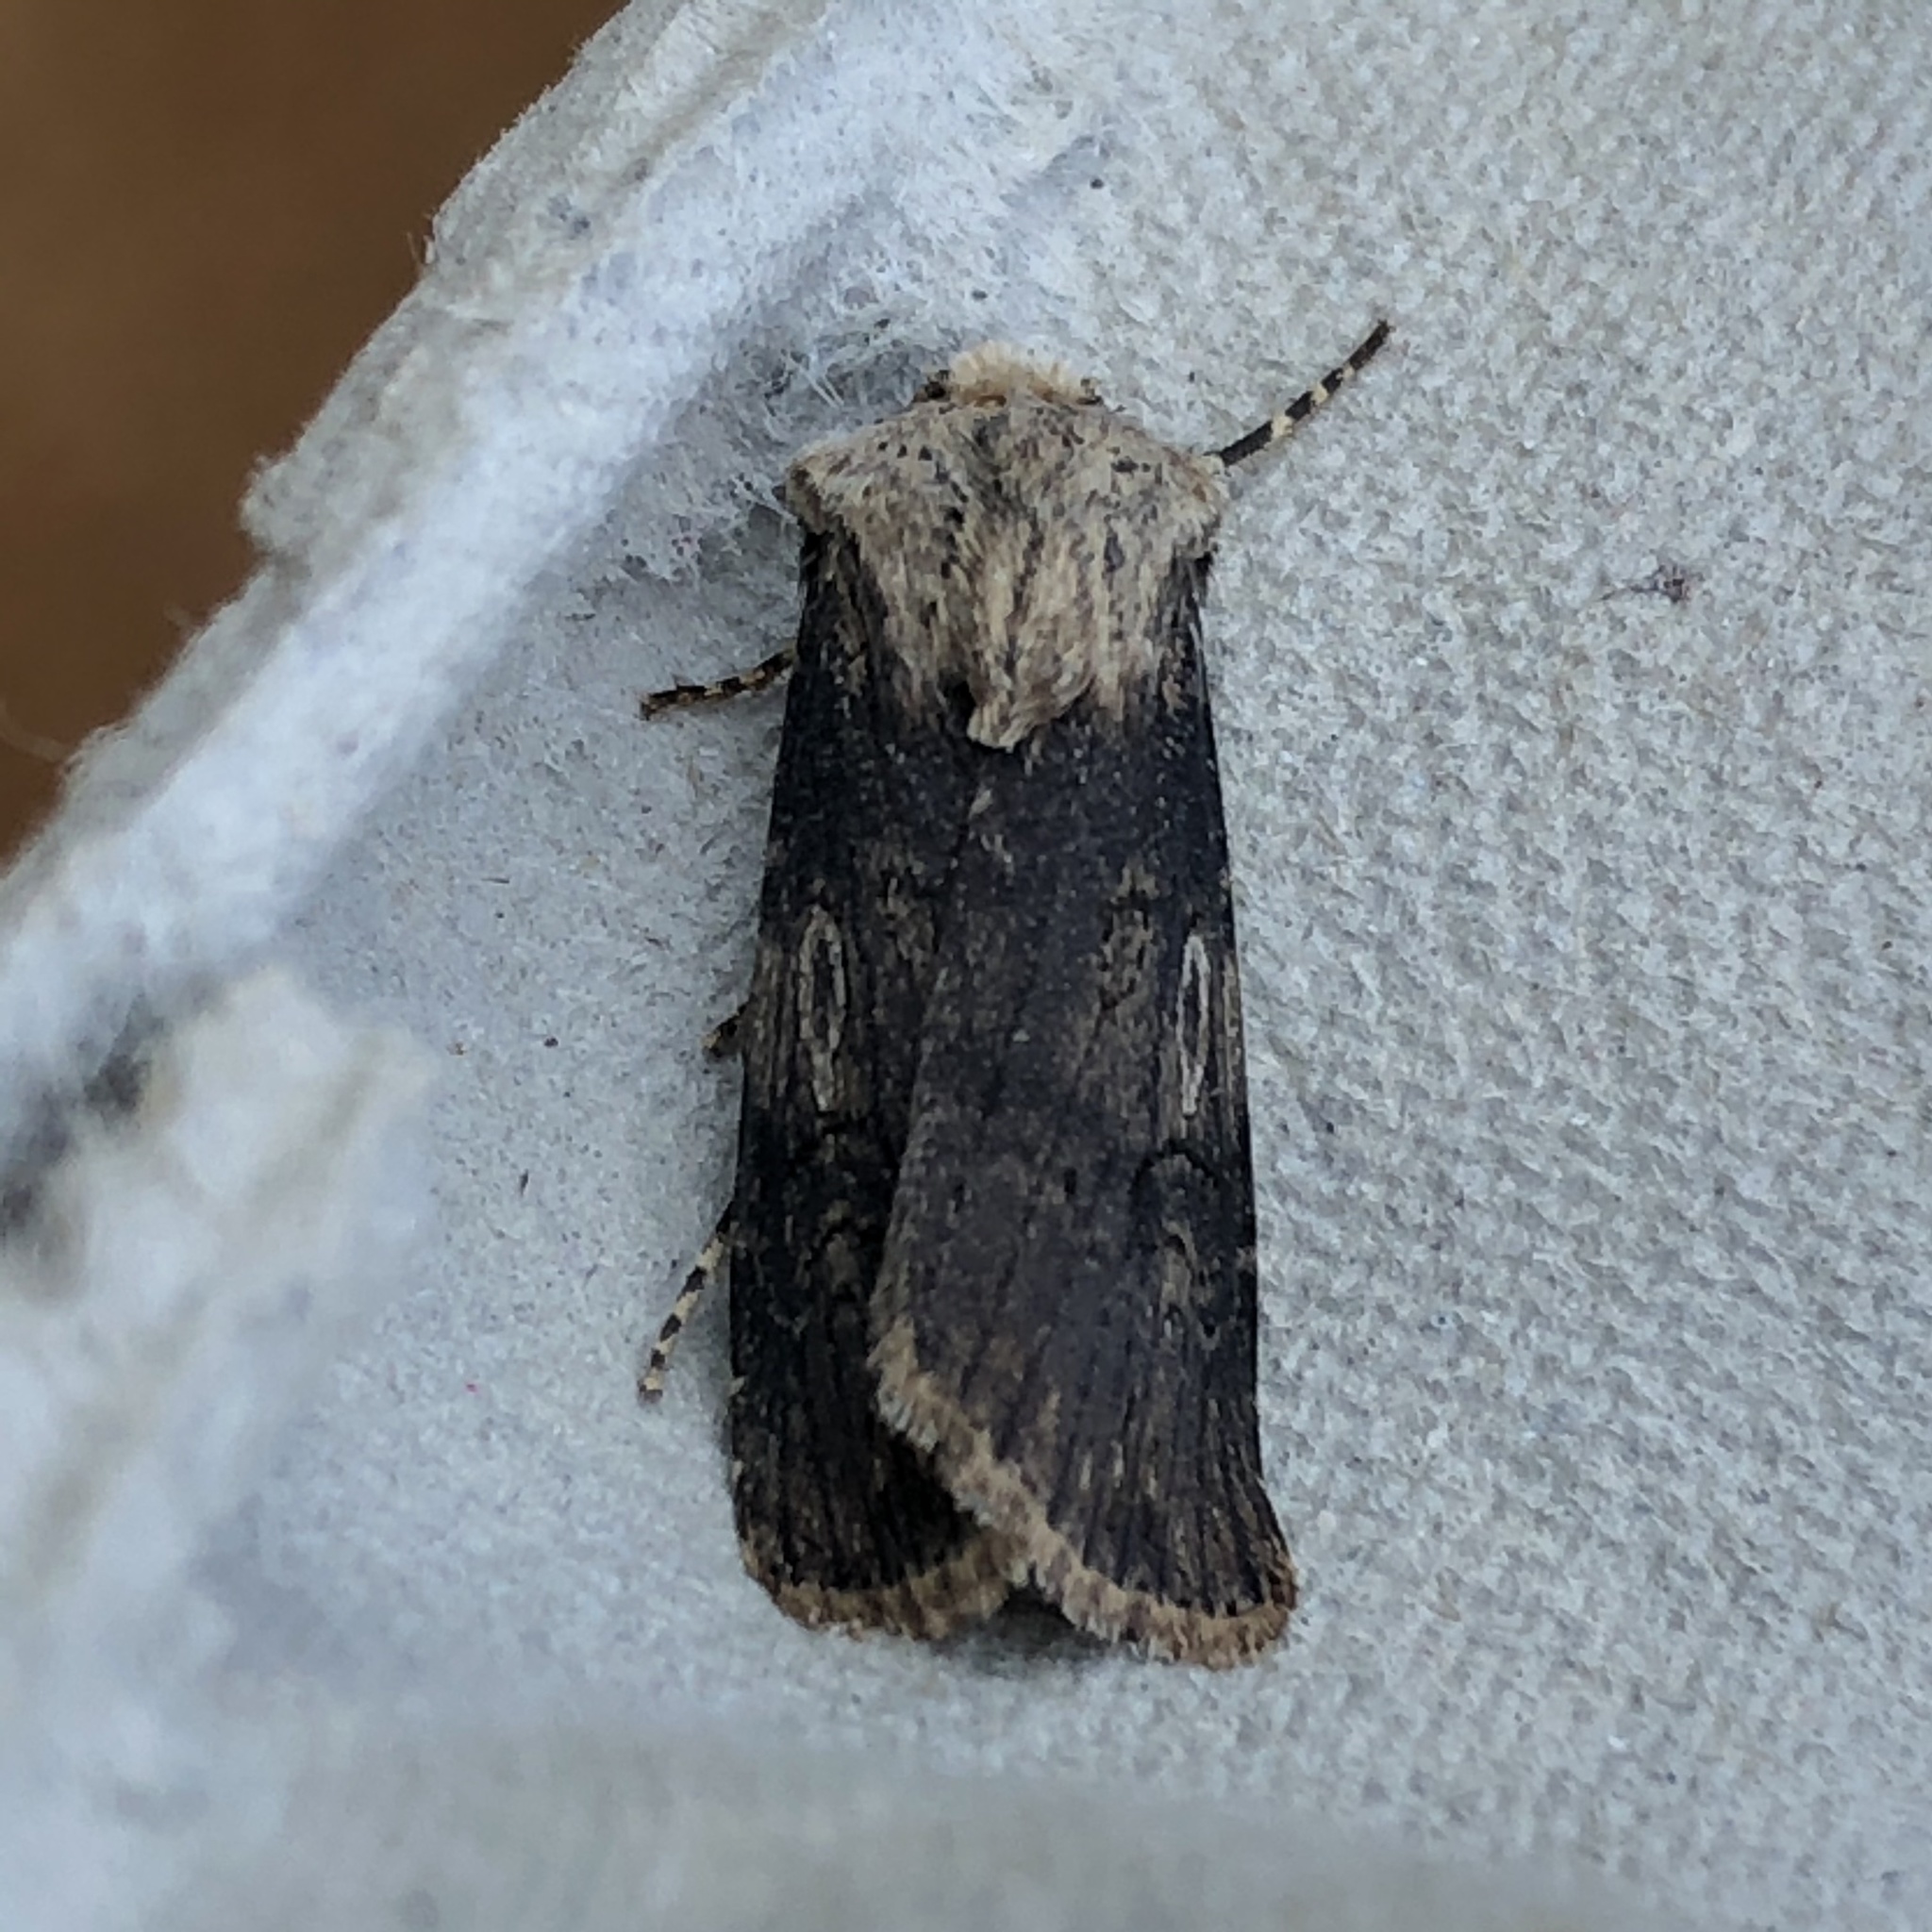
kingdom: Animalia
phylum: Arthropoda
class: Insecta
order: Lepidoptera
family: Noctuidae
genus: Agrotis
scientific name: Agrotis puta
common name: Shuttle-shaped dart
